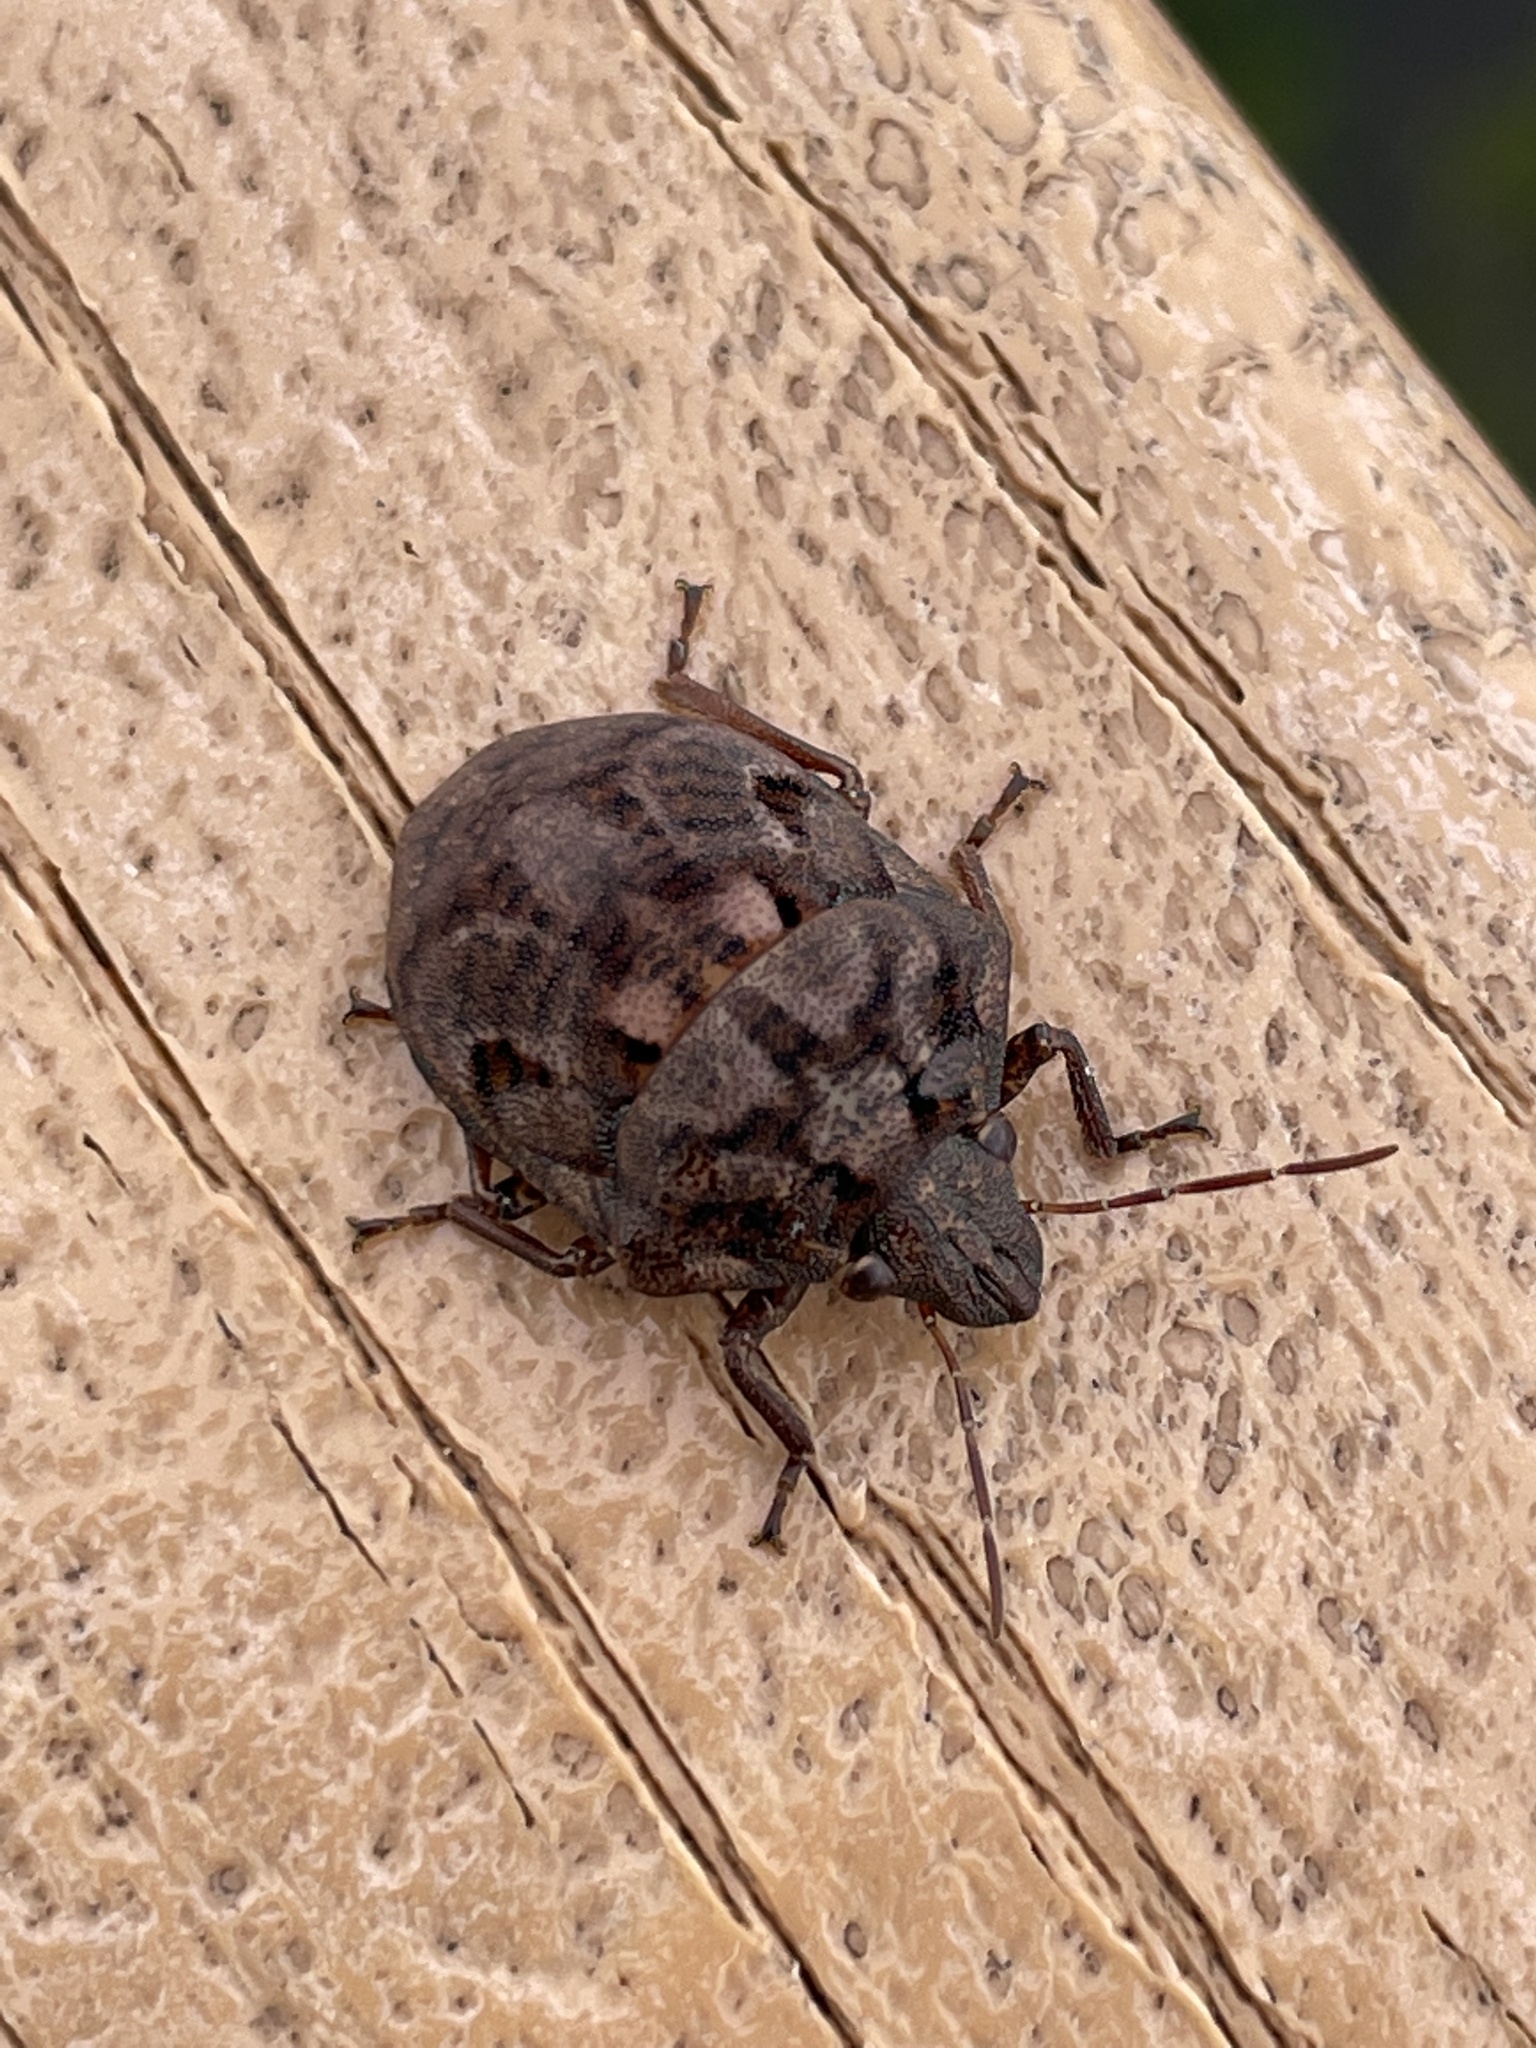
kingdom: Animalia
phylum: Arthropoda
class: Insecta
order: Hemiptera
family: Scutelleridae
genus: Tetyra
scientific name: Tetyra bipunctata
